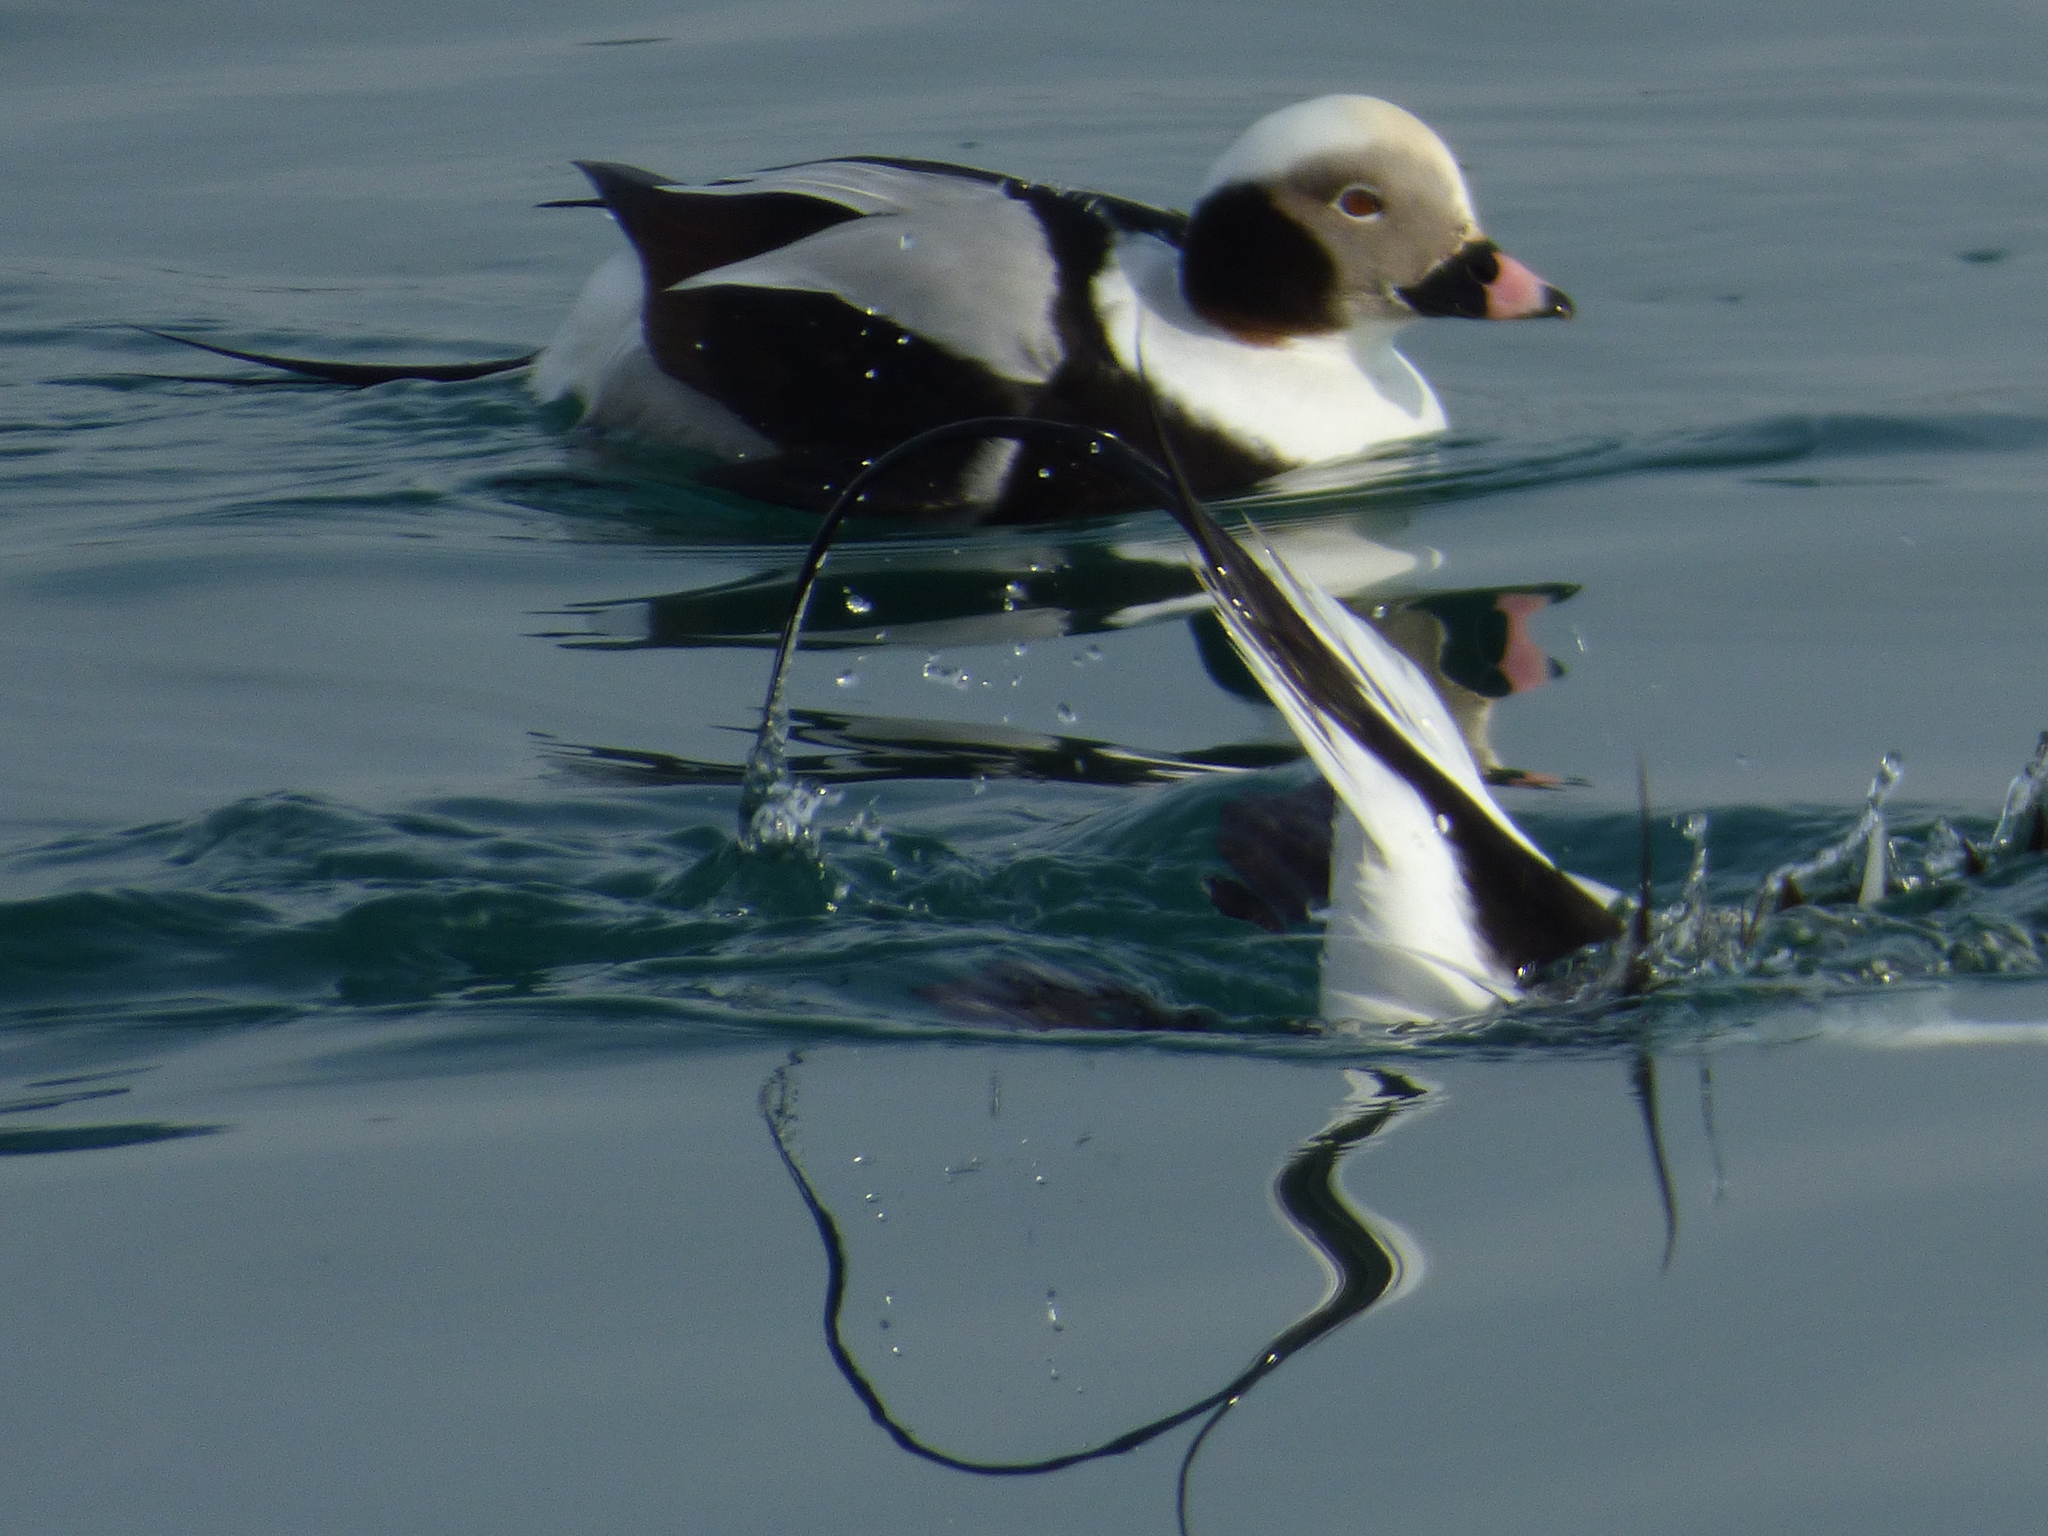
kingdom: Animalia
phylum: Chordata
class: Aves
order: Anseriformes
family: Anatidae
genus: Clangula
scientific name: Clangula hyemalis
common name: Long-tailed duck
